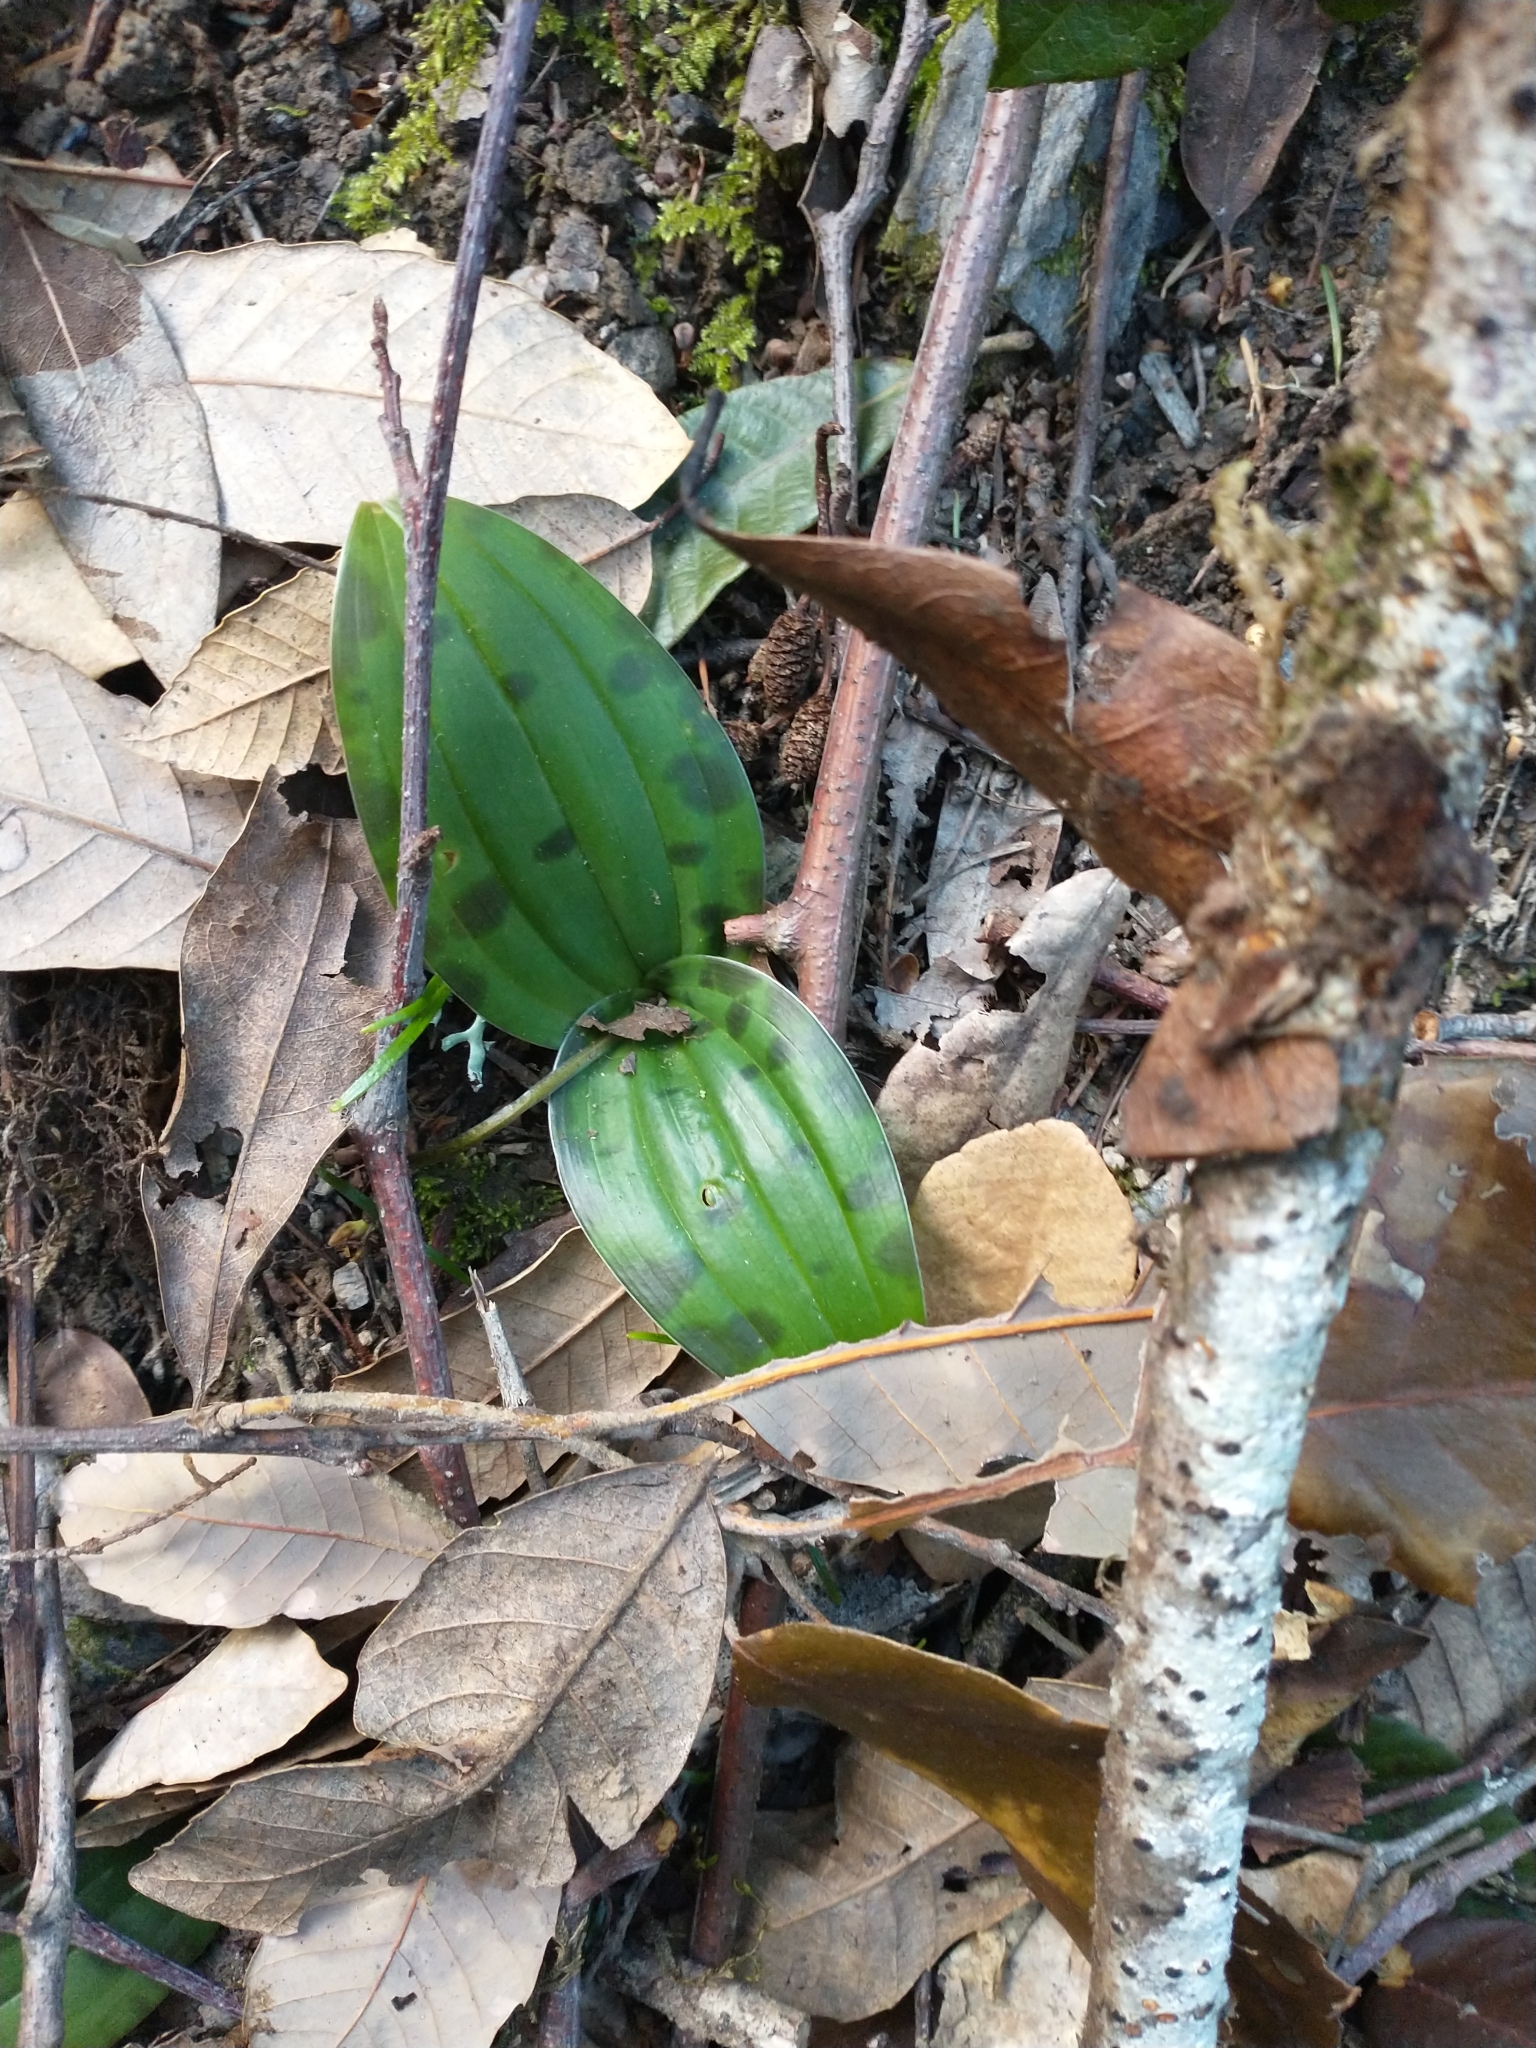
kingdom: Plantae
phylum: Tracheophyta
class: Liliopsida
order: Liliales
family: Liliaceae
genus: Scoliopus
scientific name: Scoliopus bigelovii
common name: Foetid adder's-tongue
